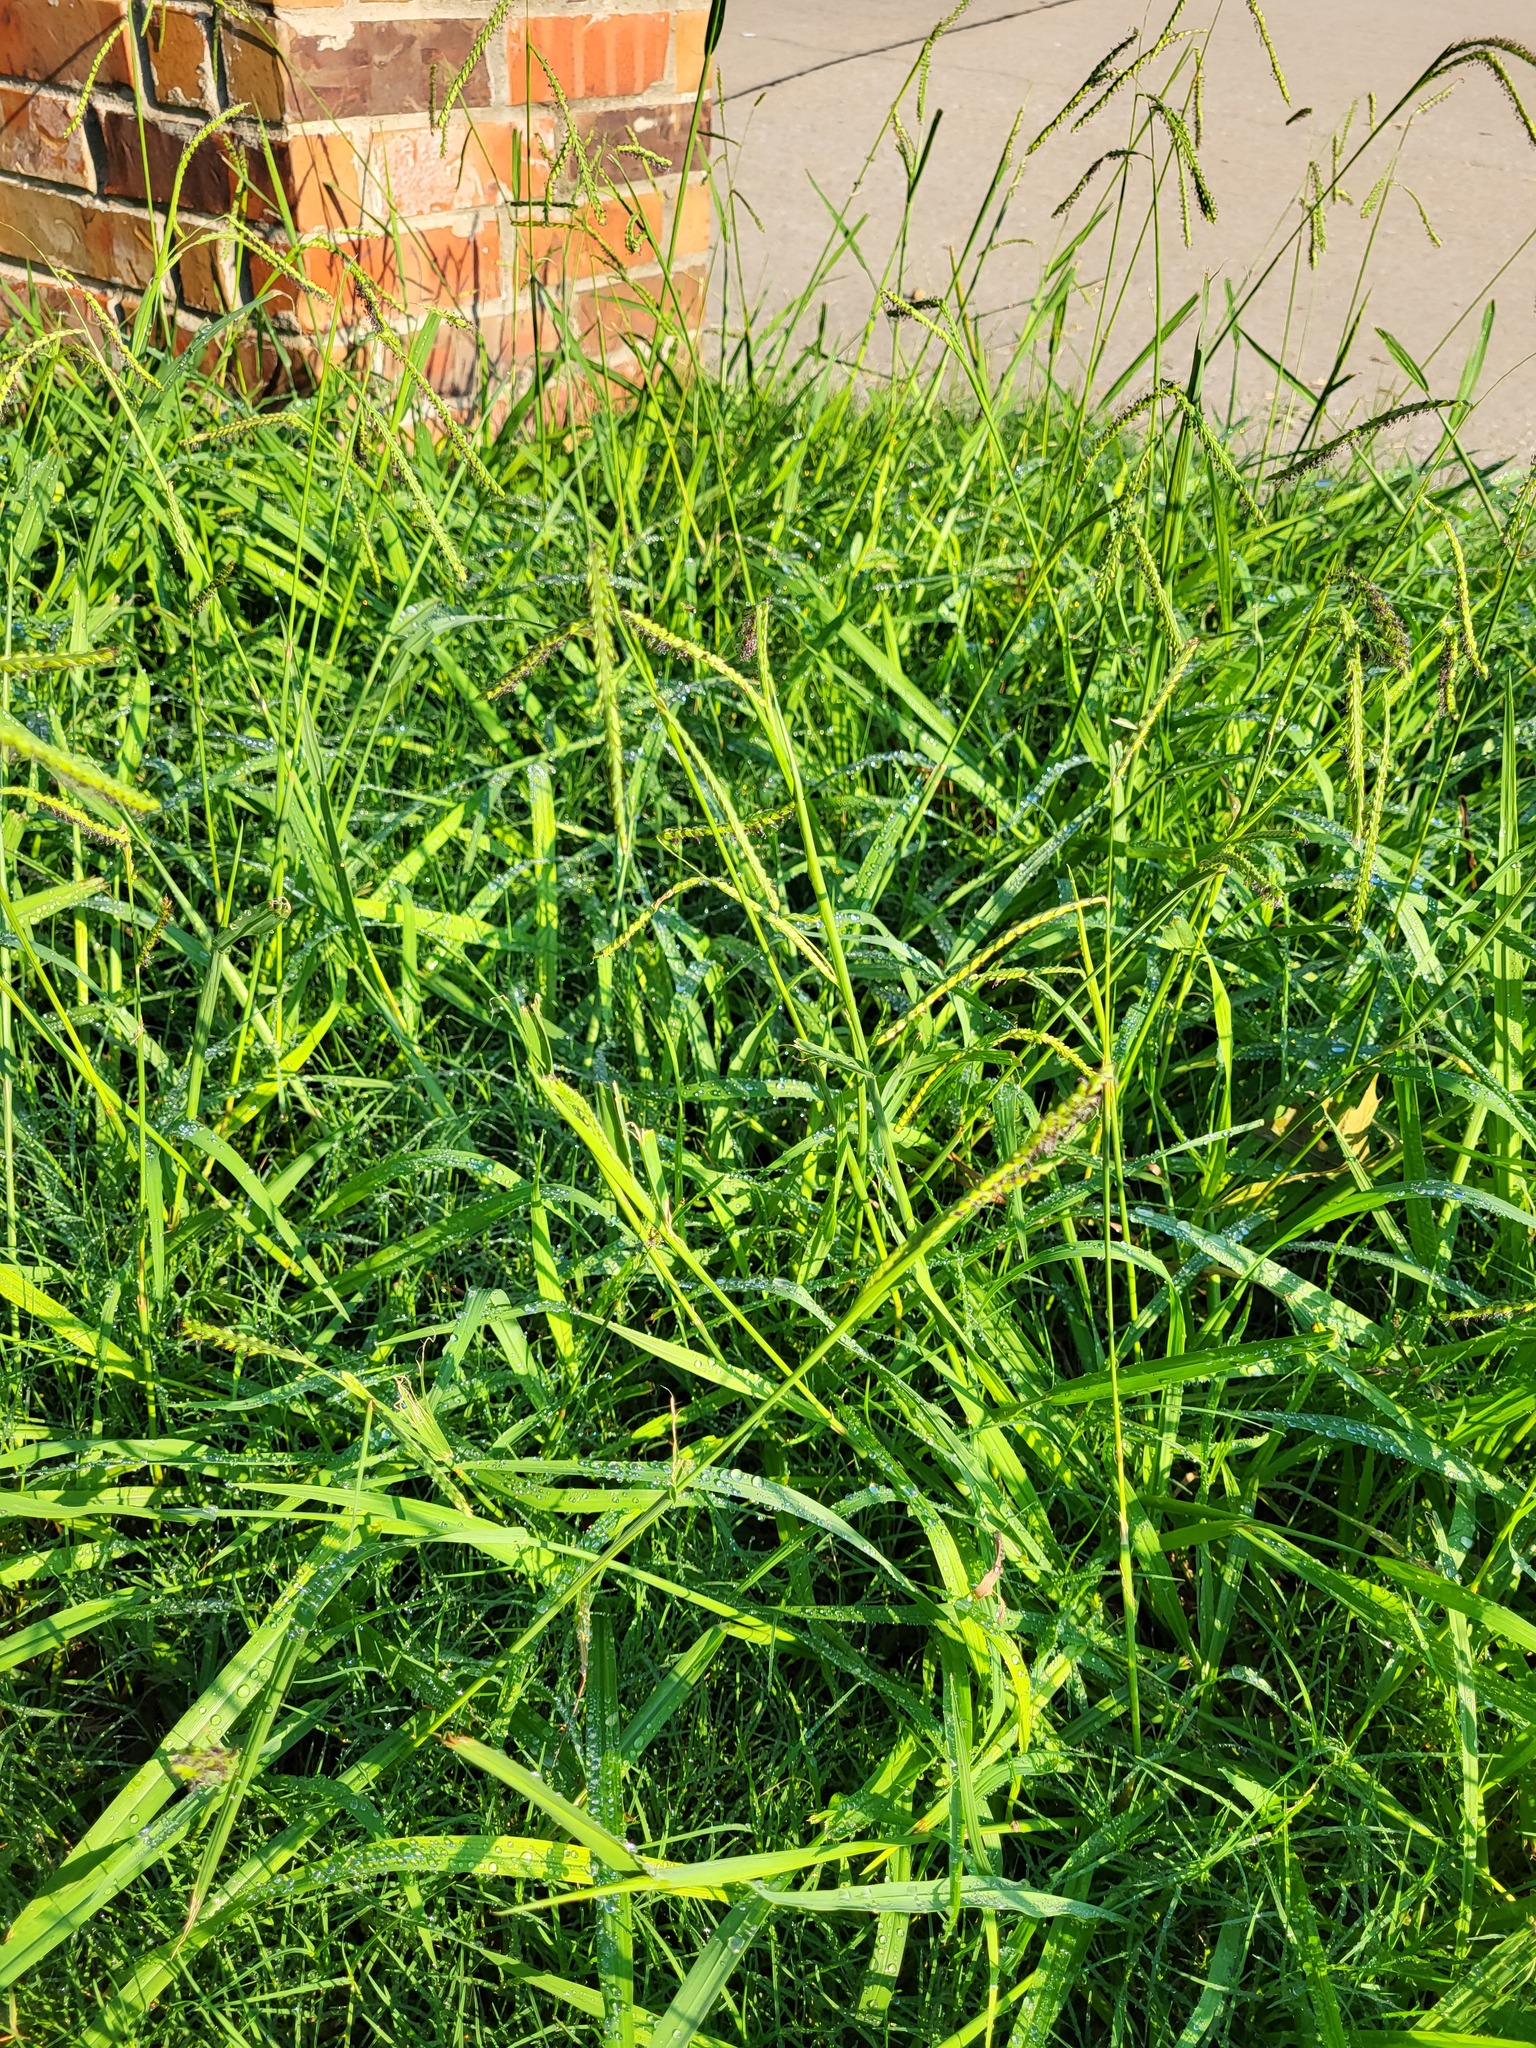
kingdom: Plantae
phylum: Tracheophyta
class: Liliopsida
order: Poales
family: Poaceae
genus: Paspalum
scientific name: Paspalum dilatatum
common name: Dallisgrass
